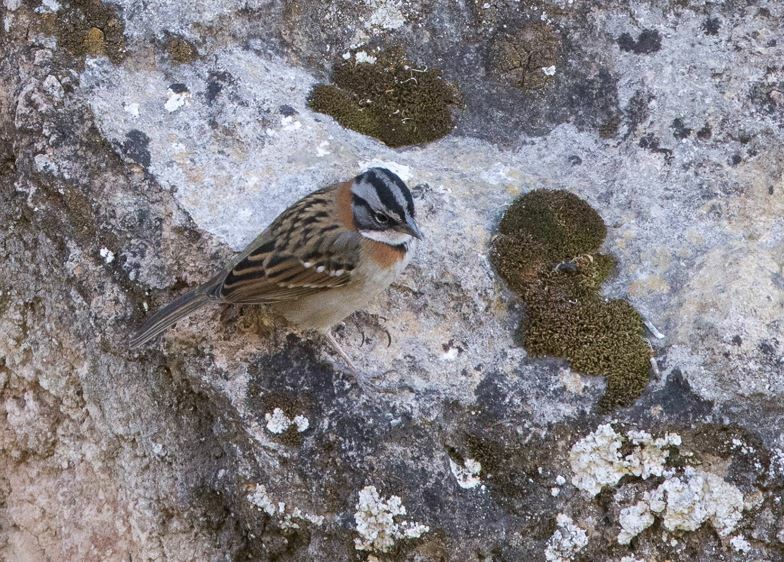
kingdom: Animalia
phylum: Chordata
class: Aves
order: Passeriformes
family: Passerellidae
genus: Zonotrichia
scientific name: Zonotrichia capensis
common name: Rufous-collared sparrow
